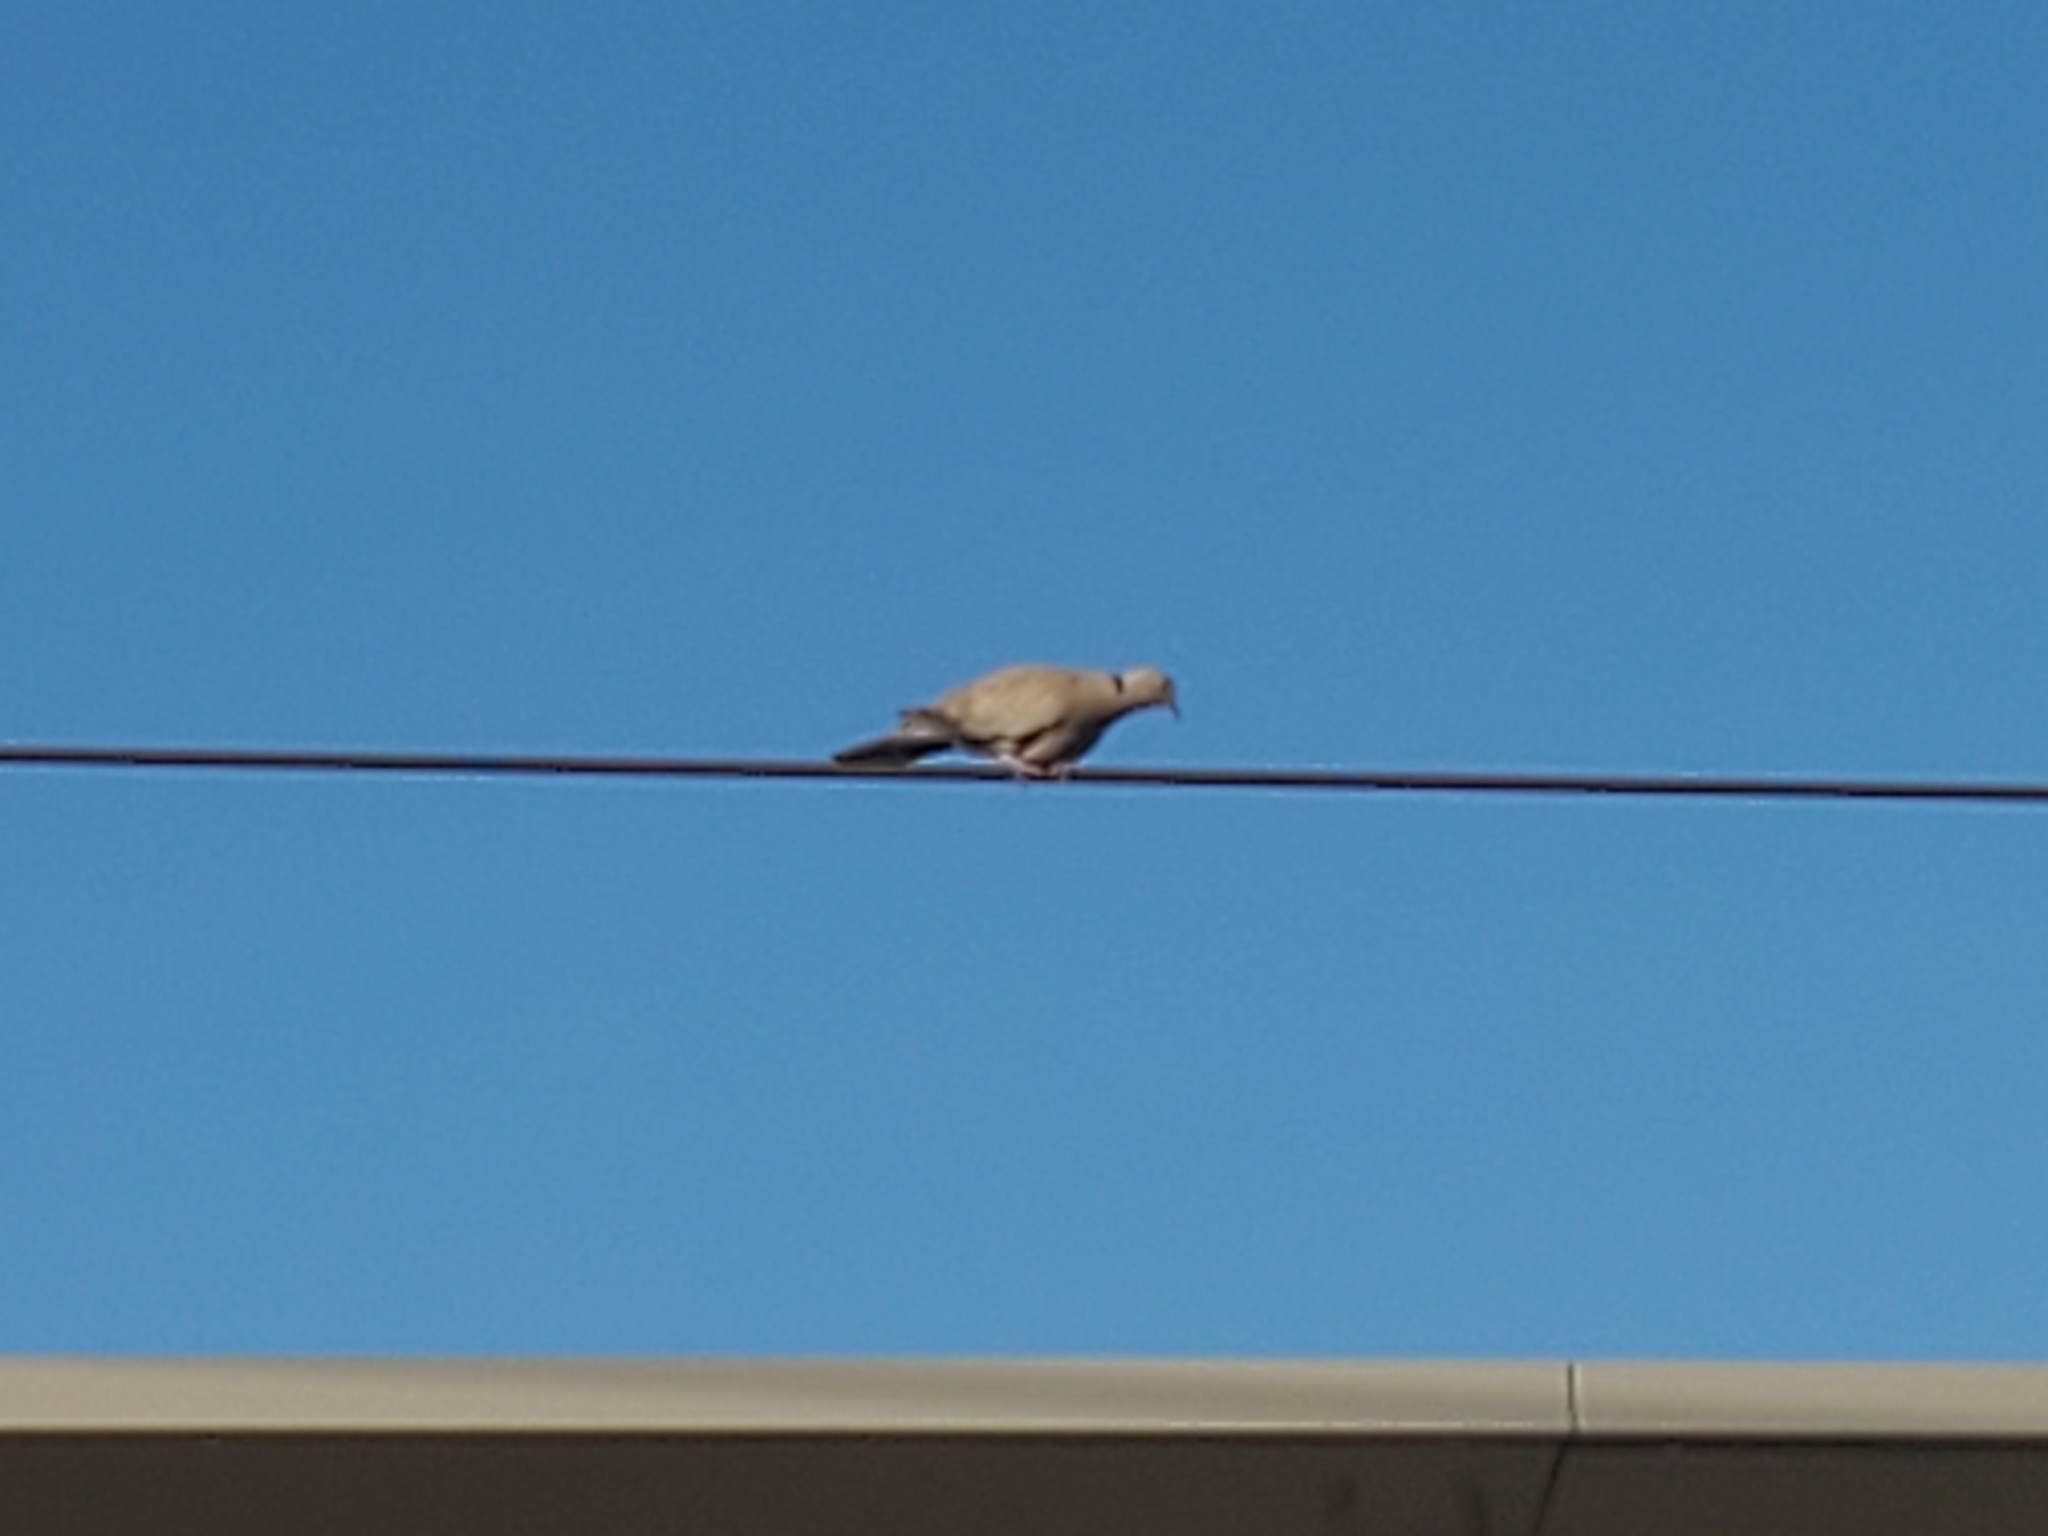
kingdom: Animalia
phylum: Chordata
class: Aves
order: Columbiformes
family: Columbidae
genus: Streptopelia
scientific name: Streptopelia decaocto
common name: Eurasian collared dove
